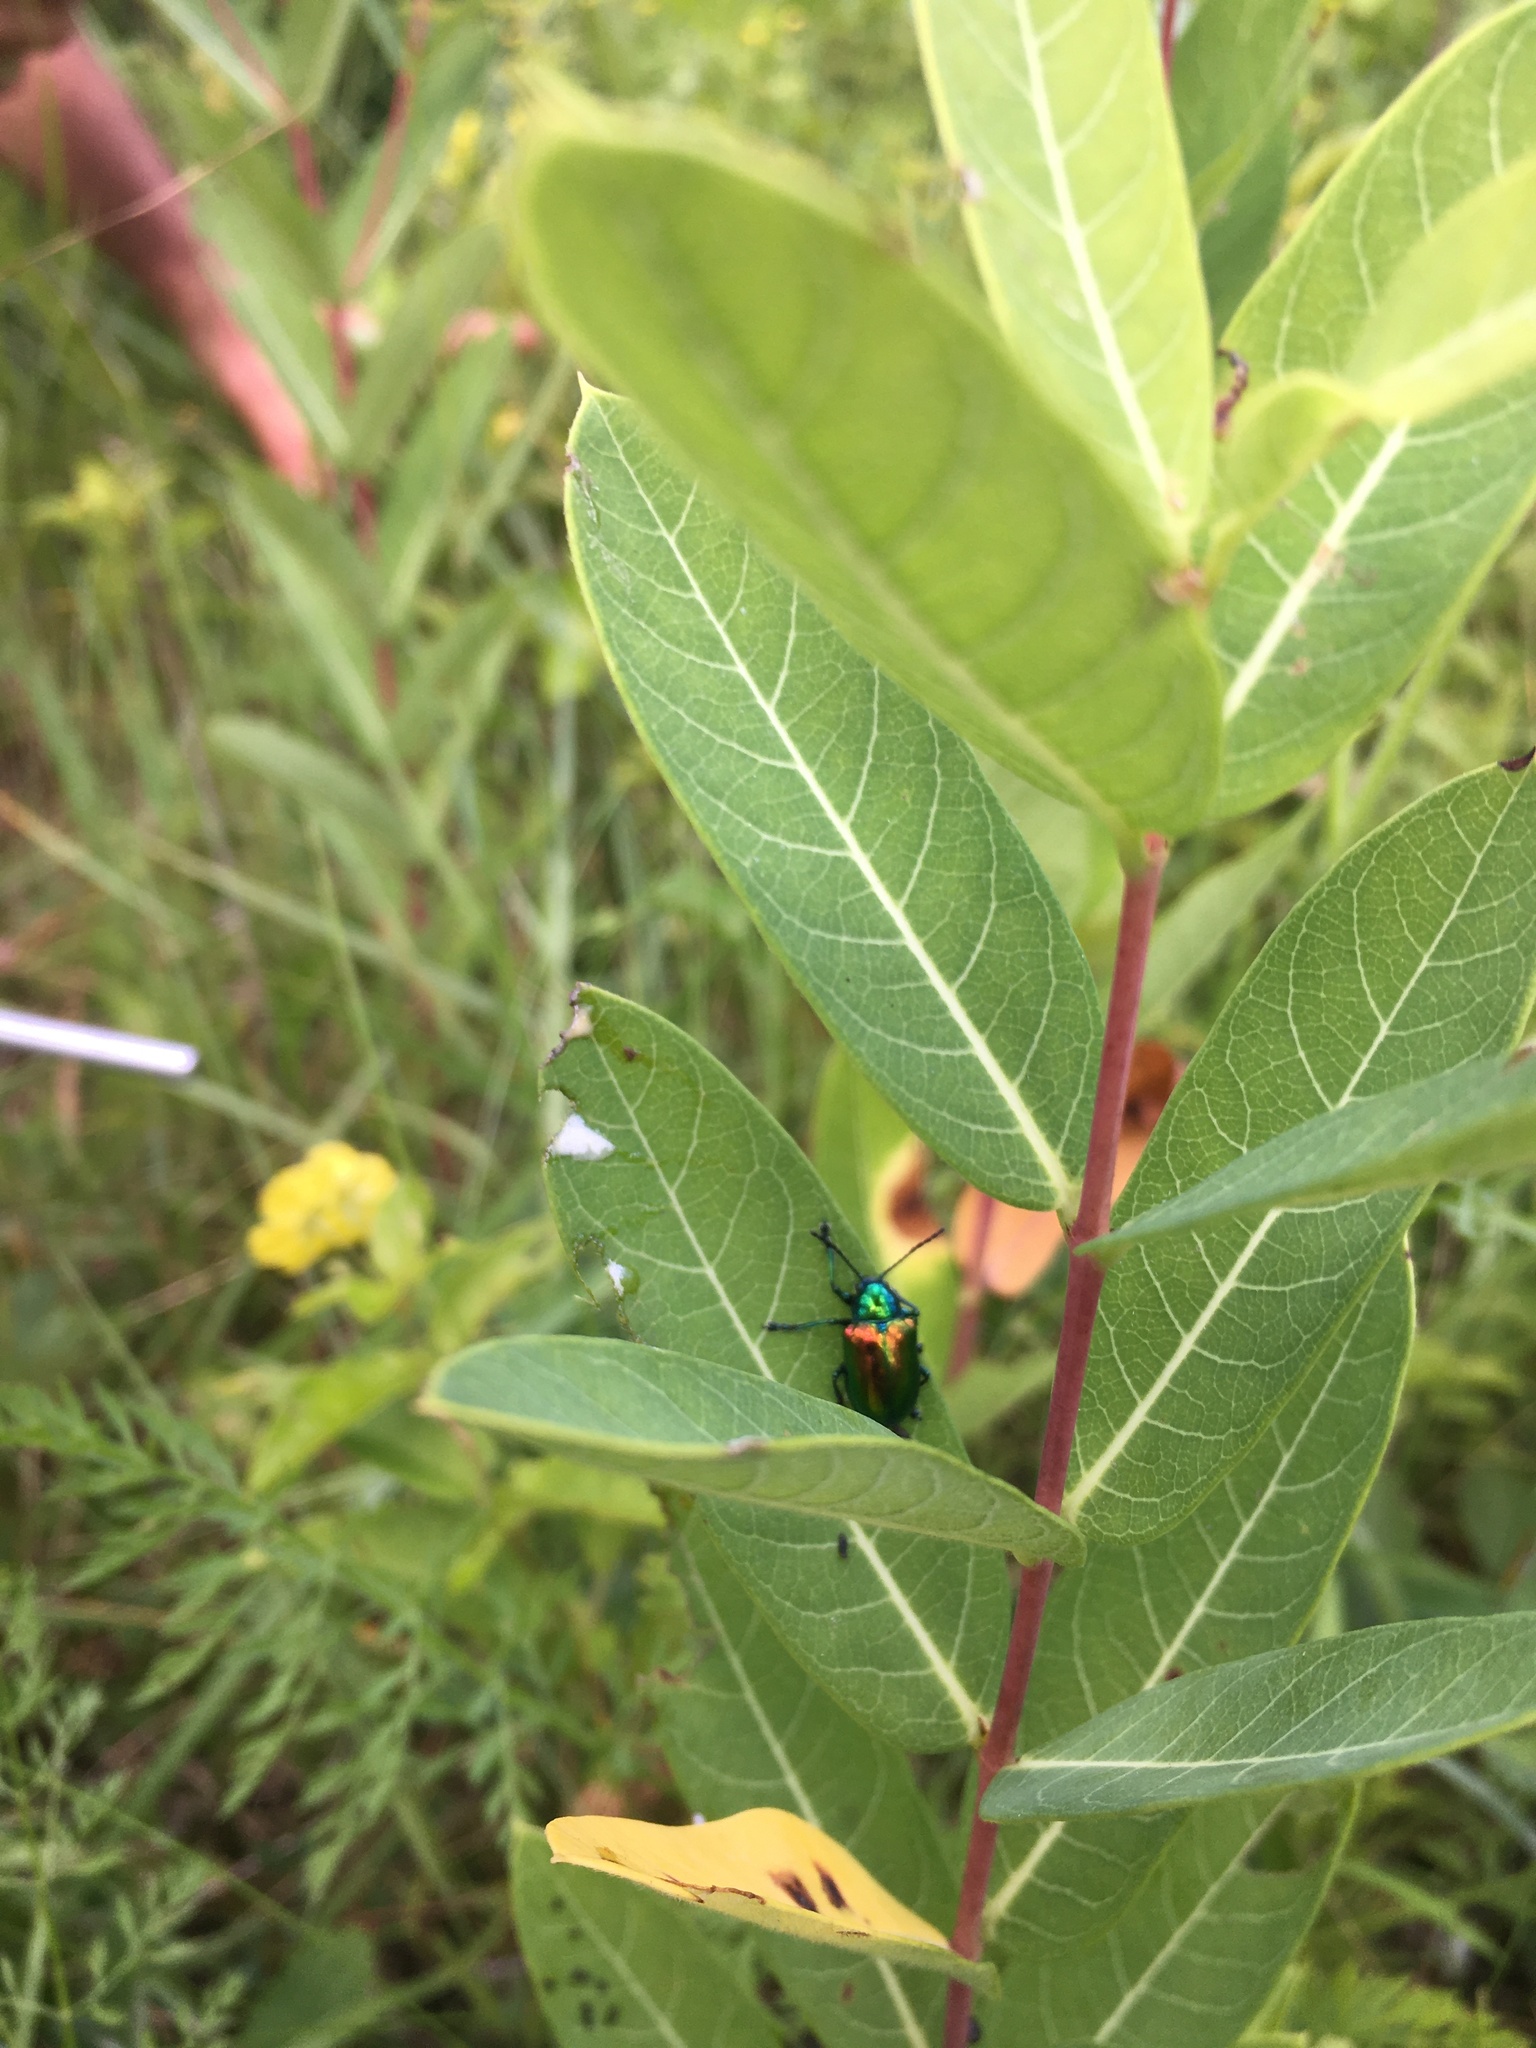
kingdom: Animalia
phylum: Arthropoda
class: Insecta
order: Coleoptera
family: Chrysomelidae
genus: Chrysochus
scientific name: Chrysochus auratus
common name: Dogbane leaf beetle
